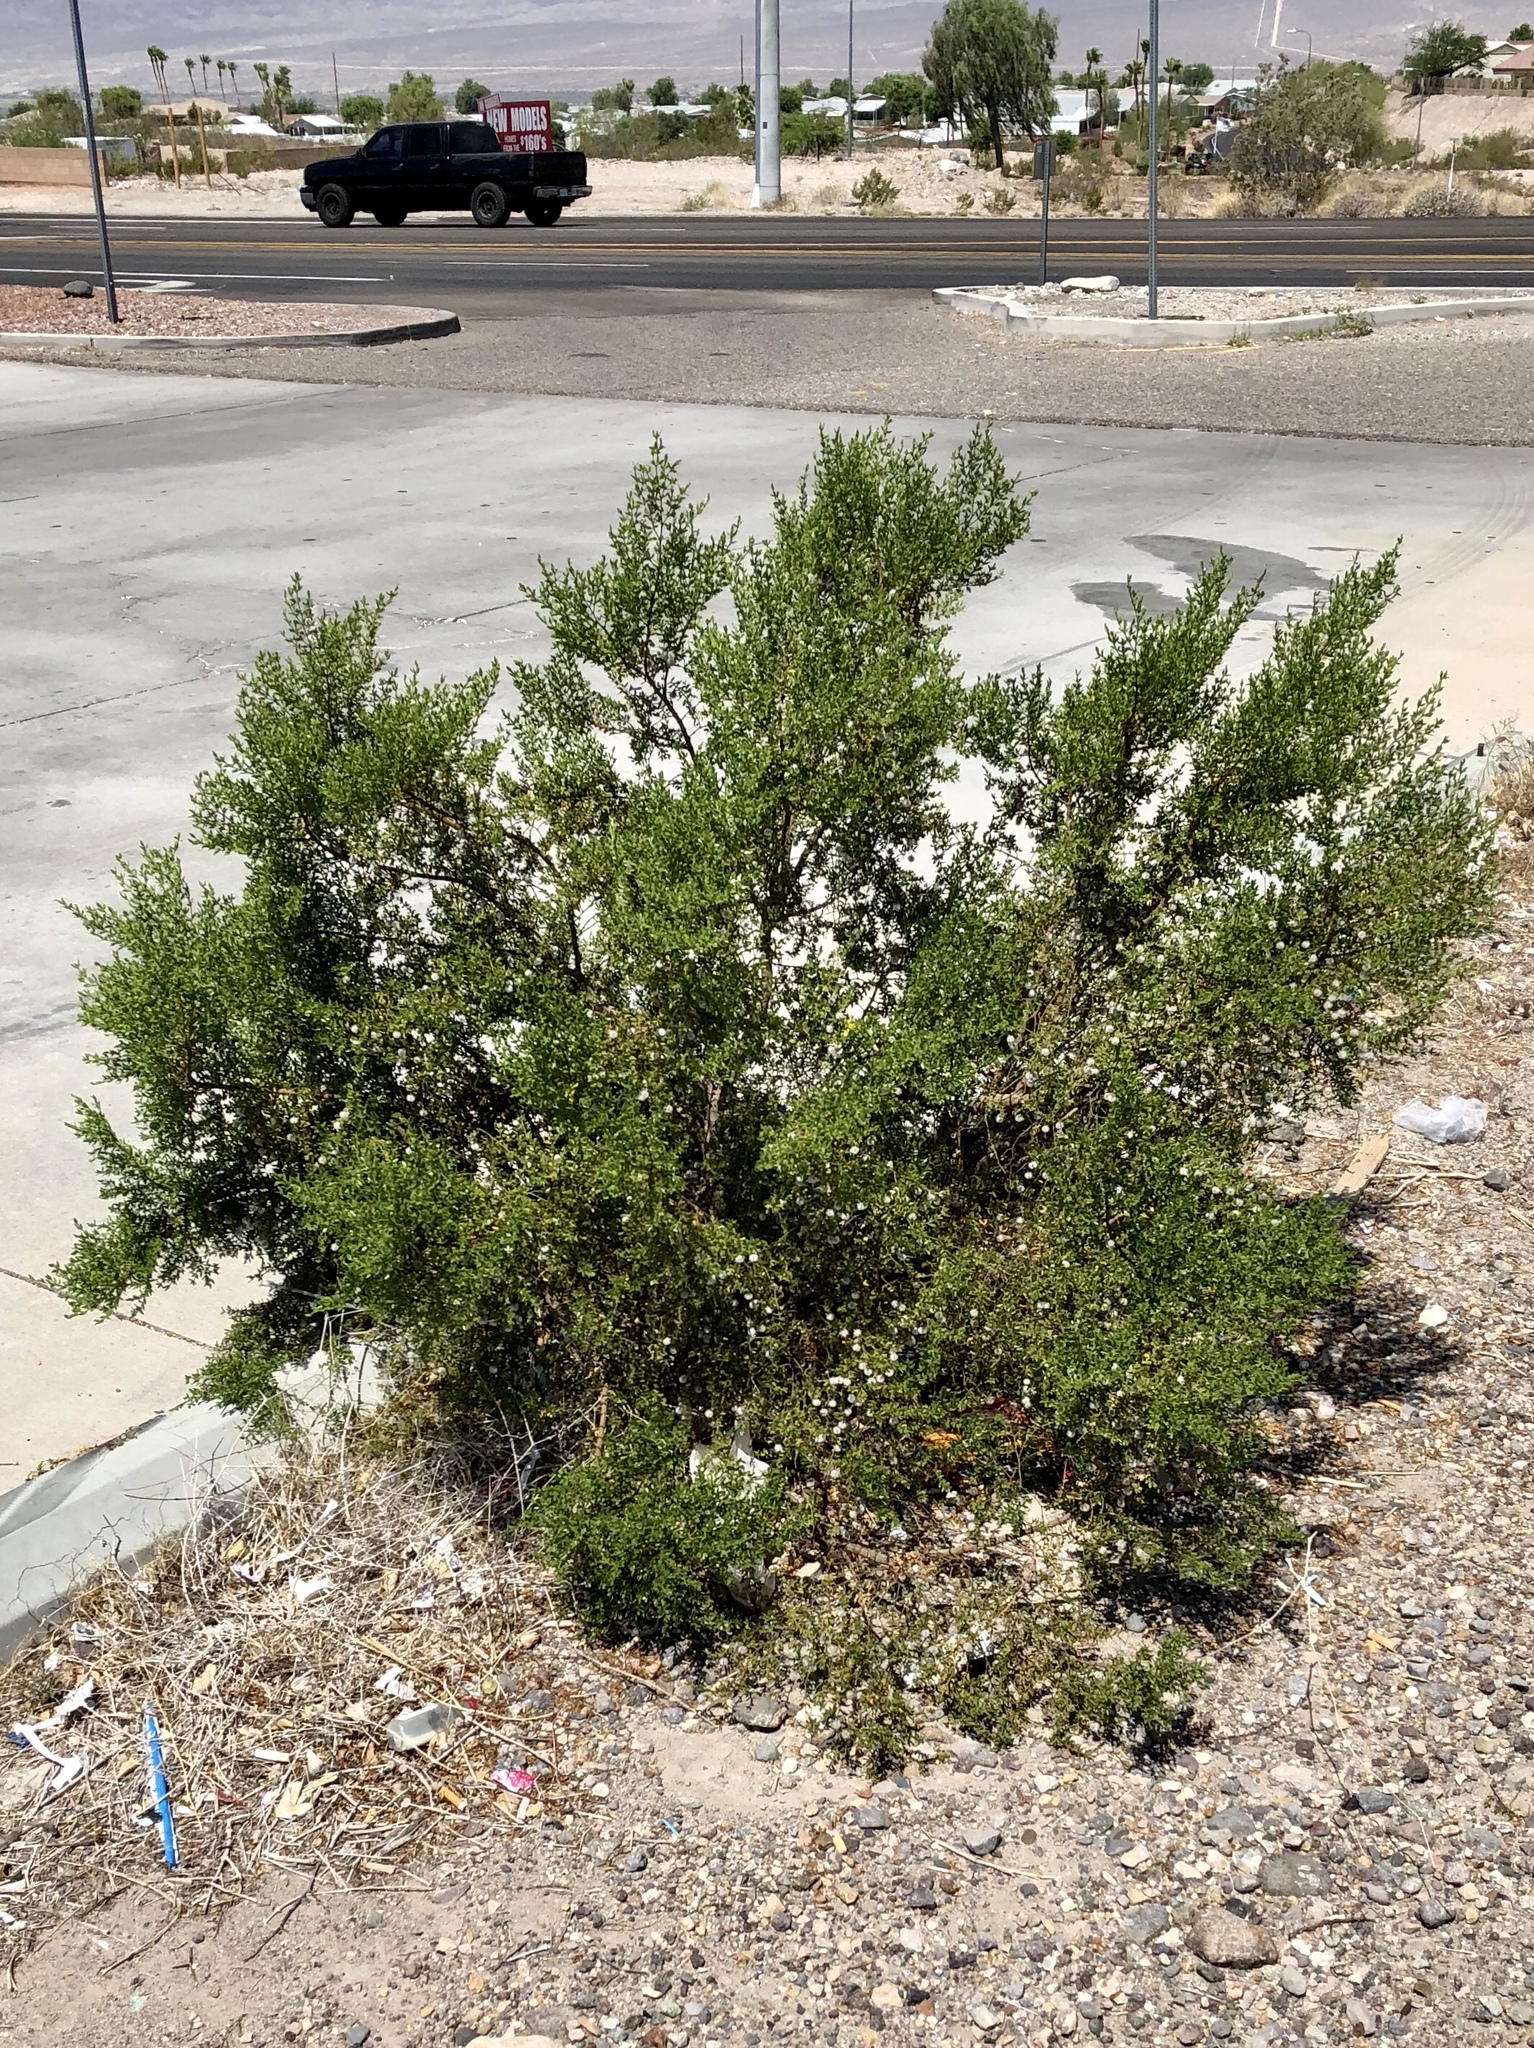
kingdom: Plantae
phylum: Tracheophyta
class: Magnoliopsida
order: Zygophyllales
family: Zygophyllaceae
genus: Larrea
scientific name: Larrea tridentata
